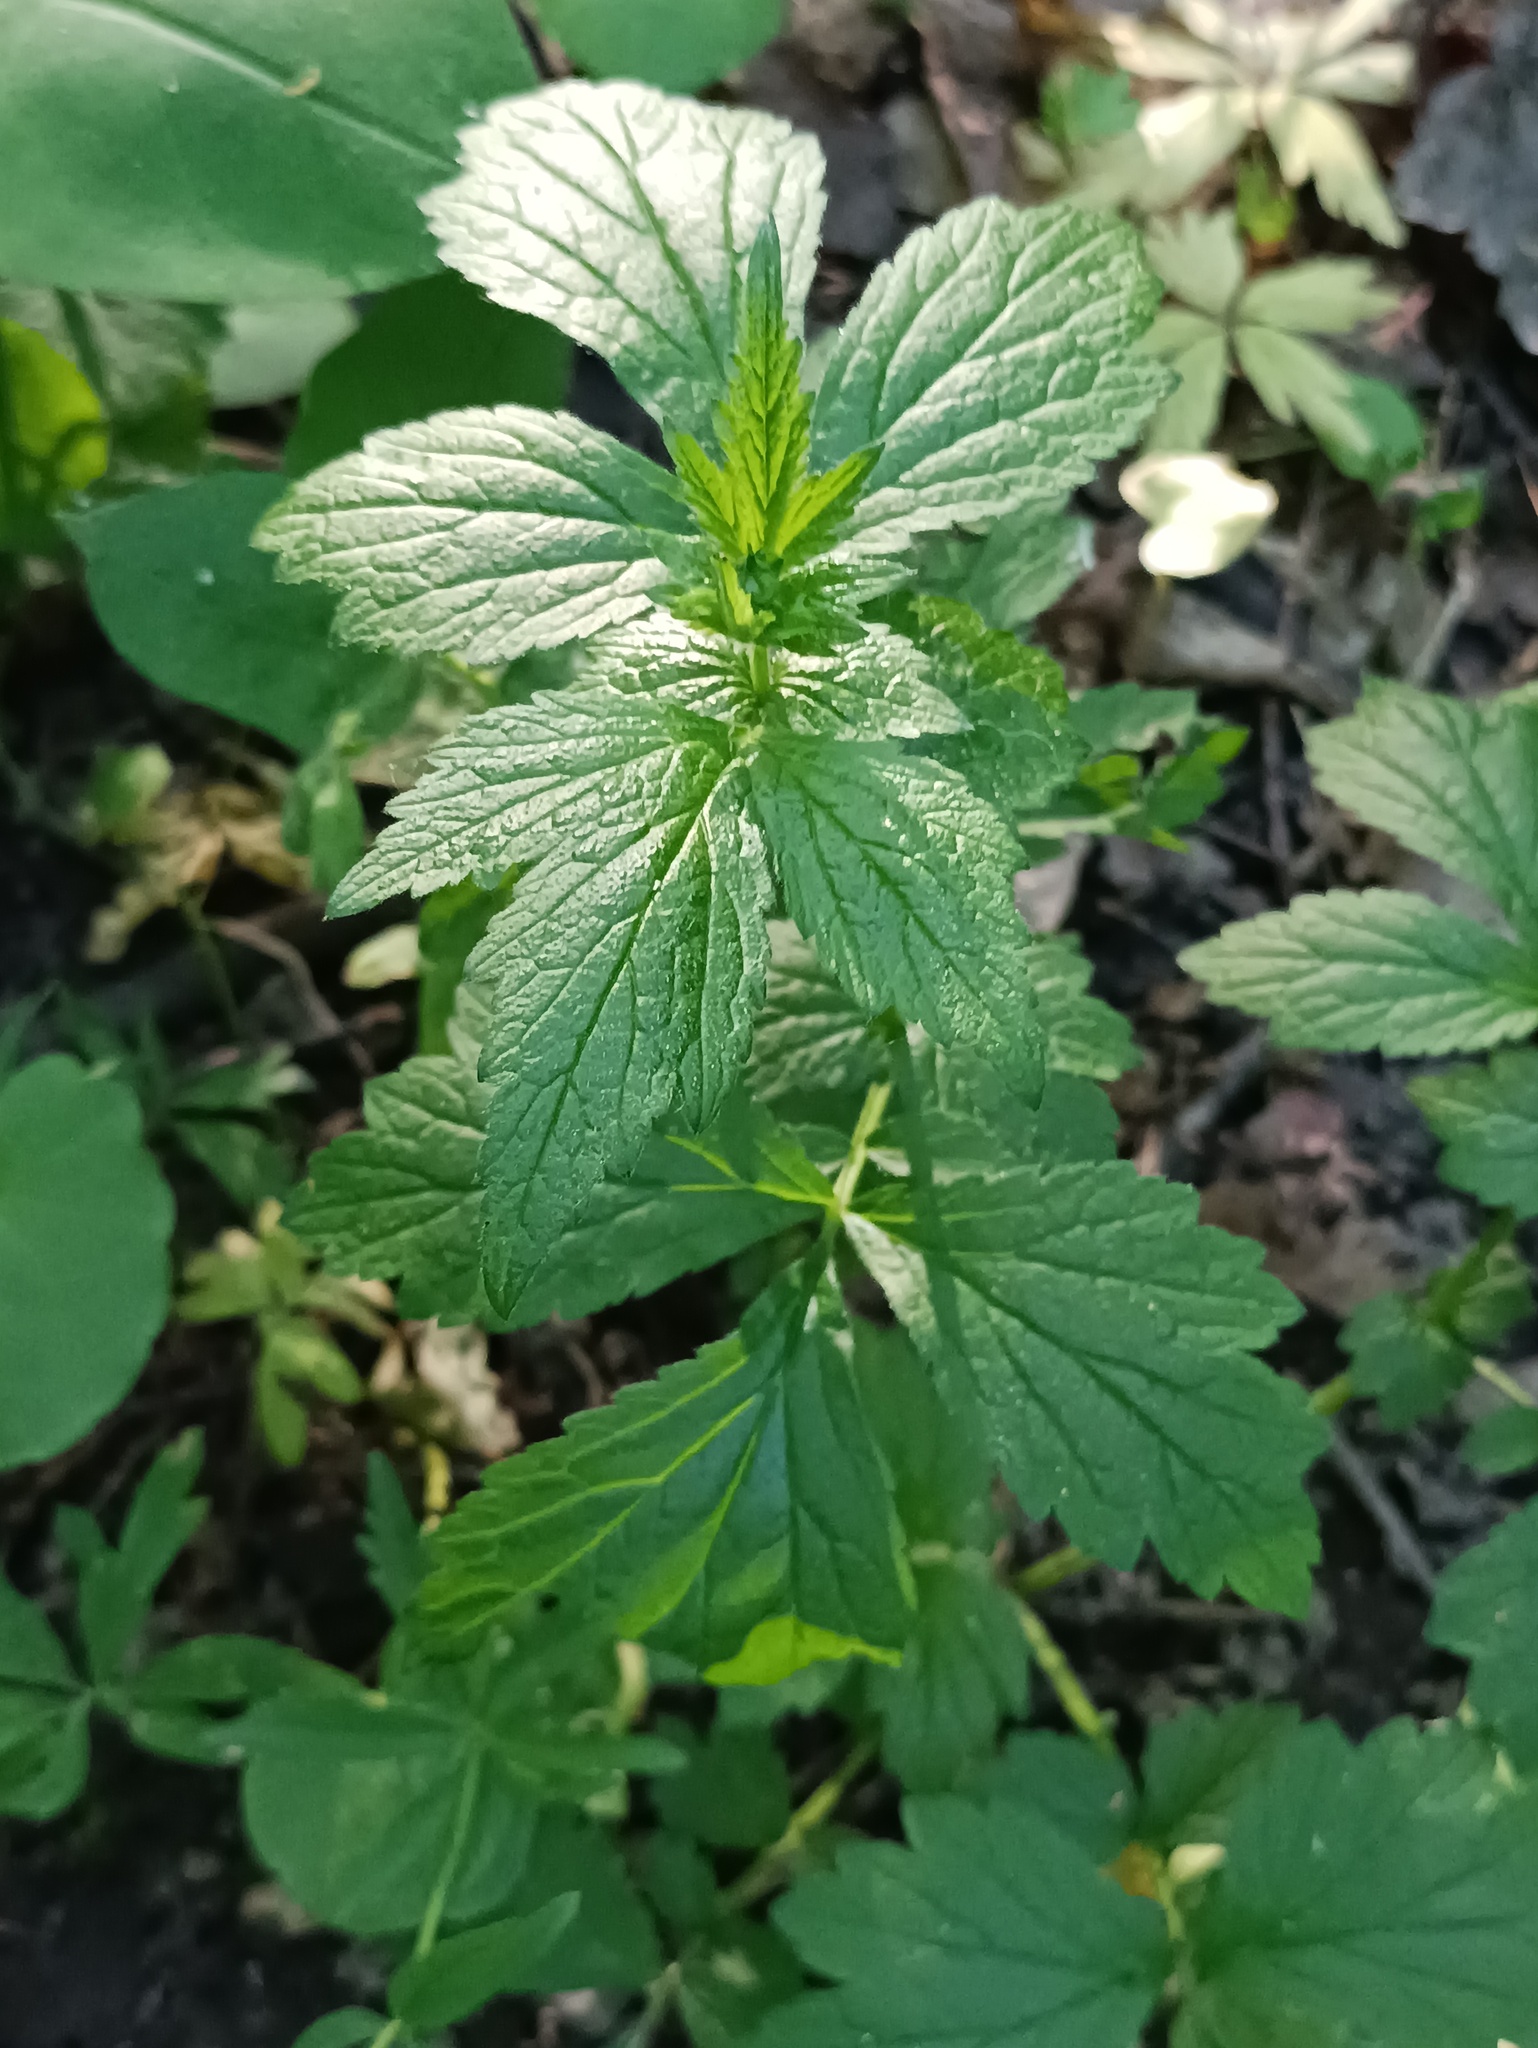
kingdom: Plantae
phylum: Tracheophyta
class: Magnoliopsida
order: Rosales
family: Rosaceae
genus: Geum
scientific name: Geum urbanum
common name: Wood avens
